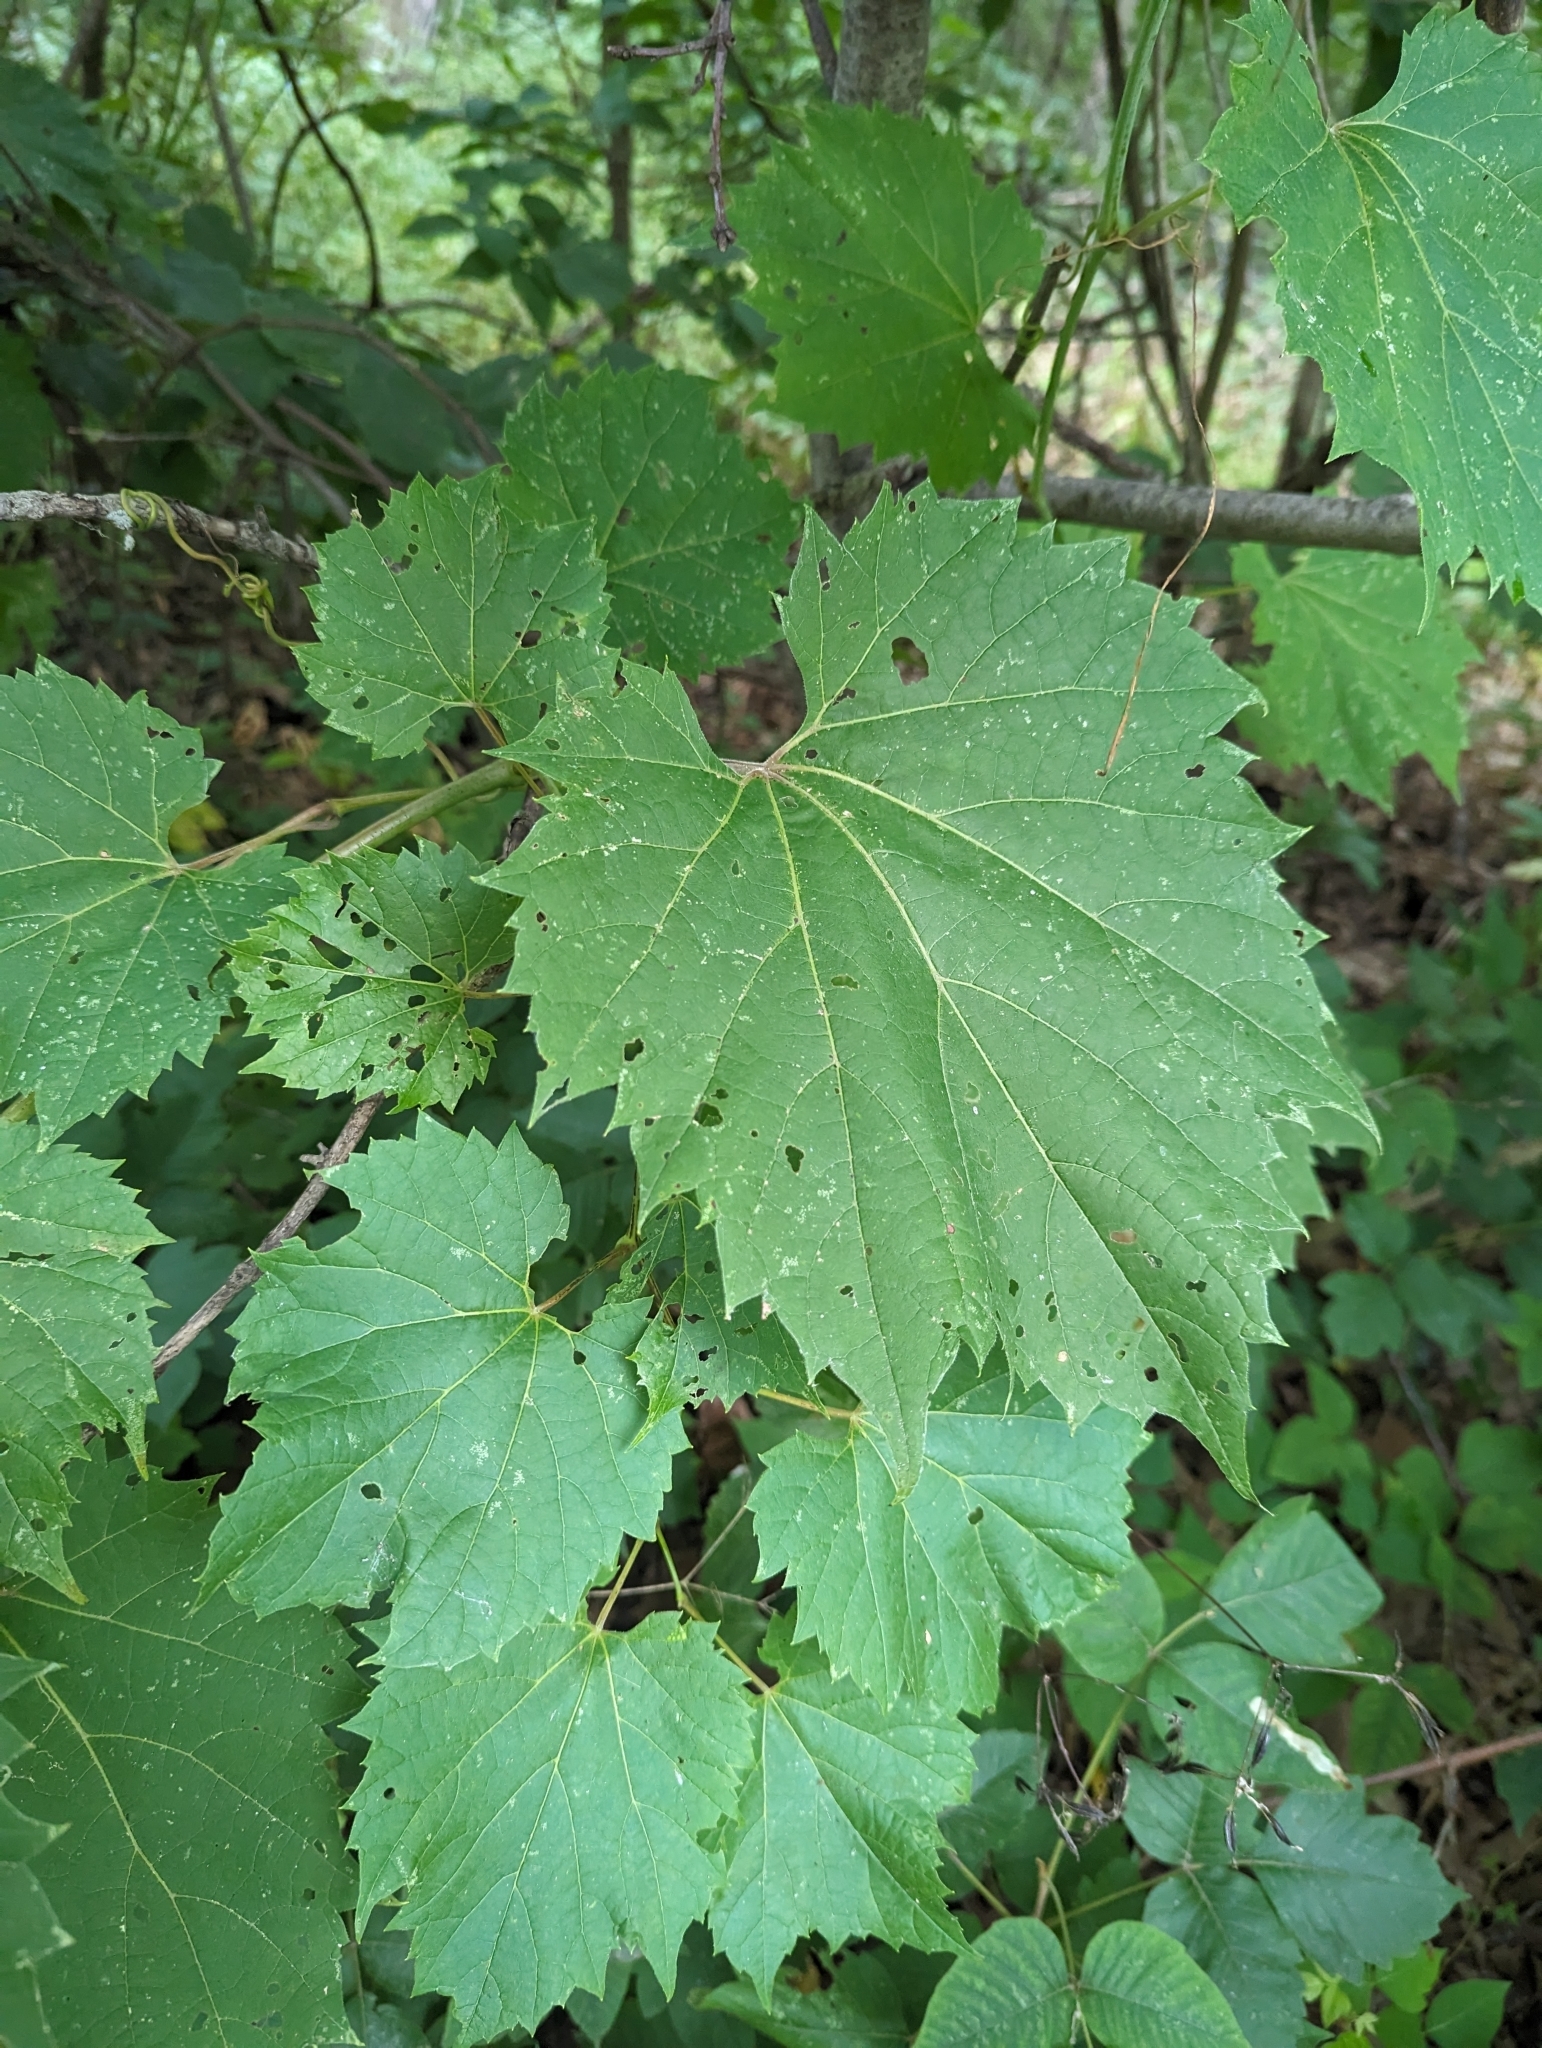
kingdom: Plantae
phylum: Tracheophyta
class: Magnoliopsida
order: Vitales
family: Vitaceae
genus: Vitis
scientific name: Vitis riparia
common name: Frost grape
